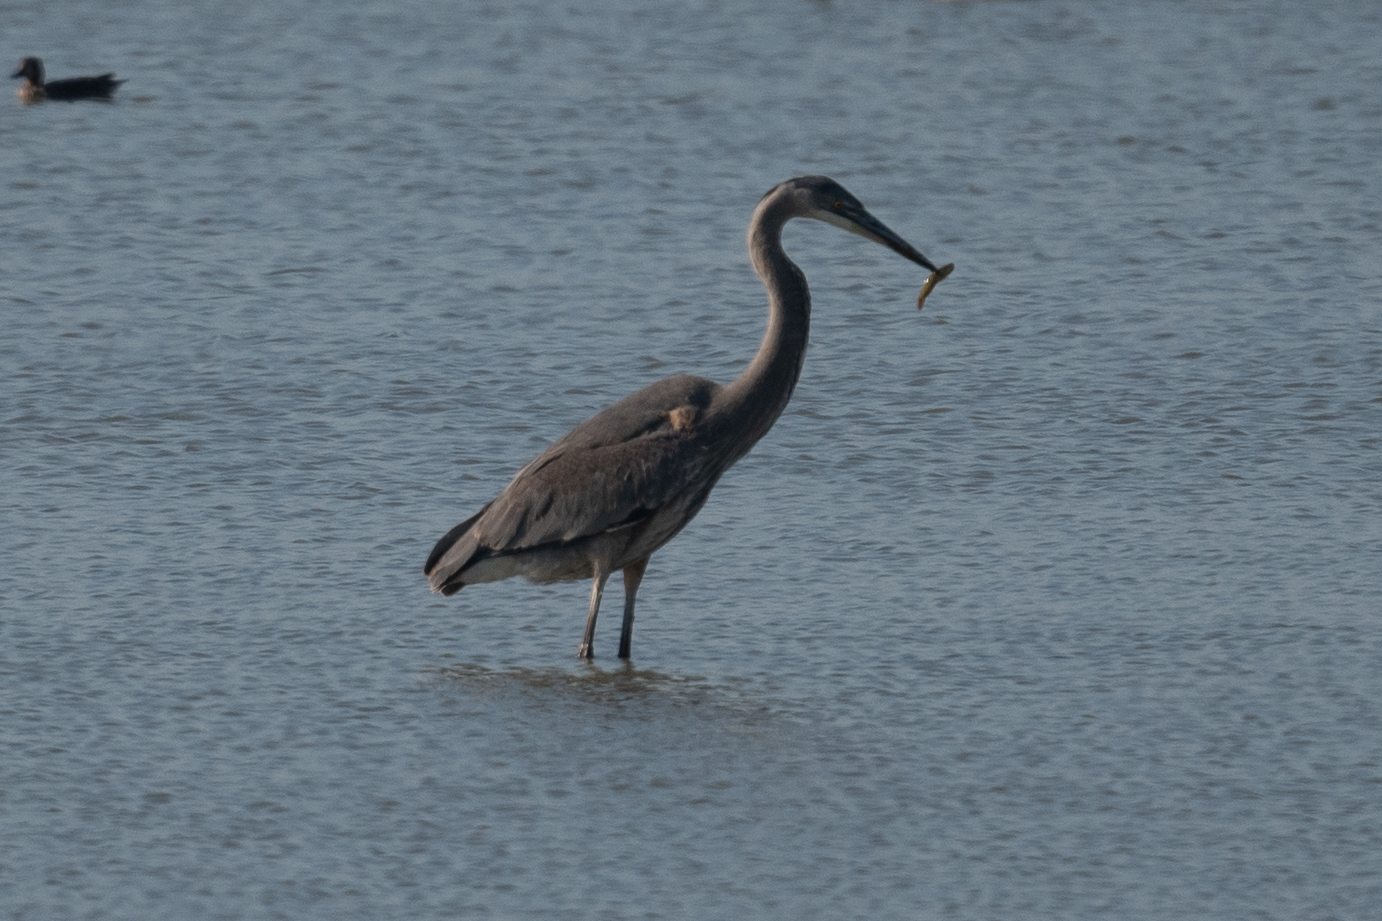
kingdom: Animalia
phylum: Chordata
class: Aves
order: Pelecaniformes
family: Ardeidae
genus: Ardea
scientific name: Ardea herodias
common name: Great blue heron
